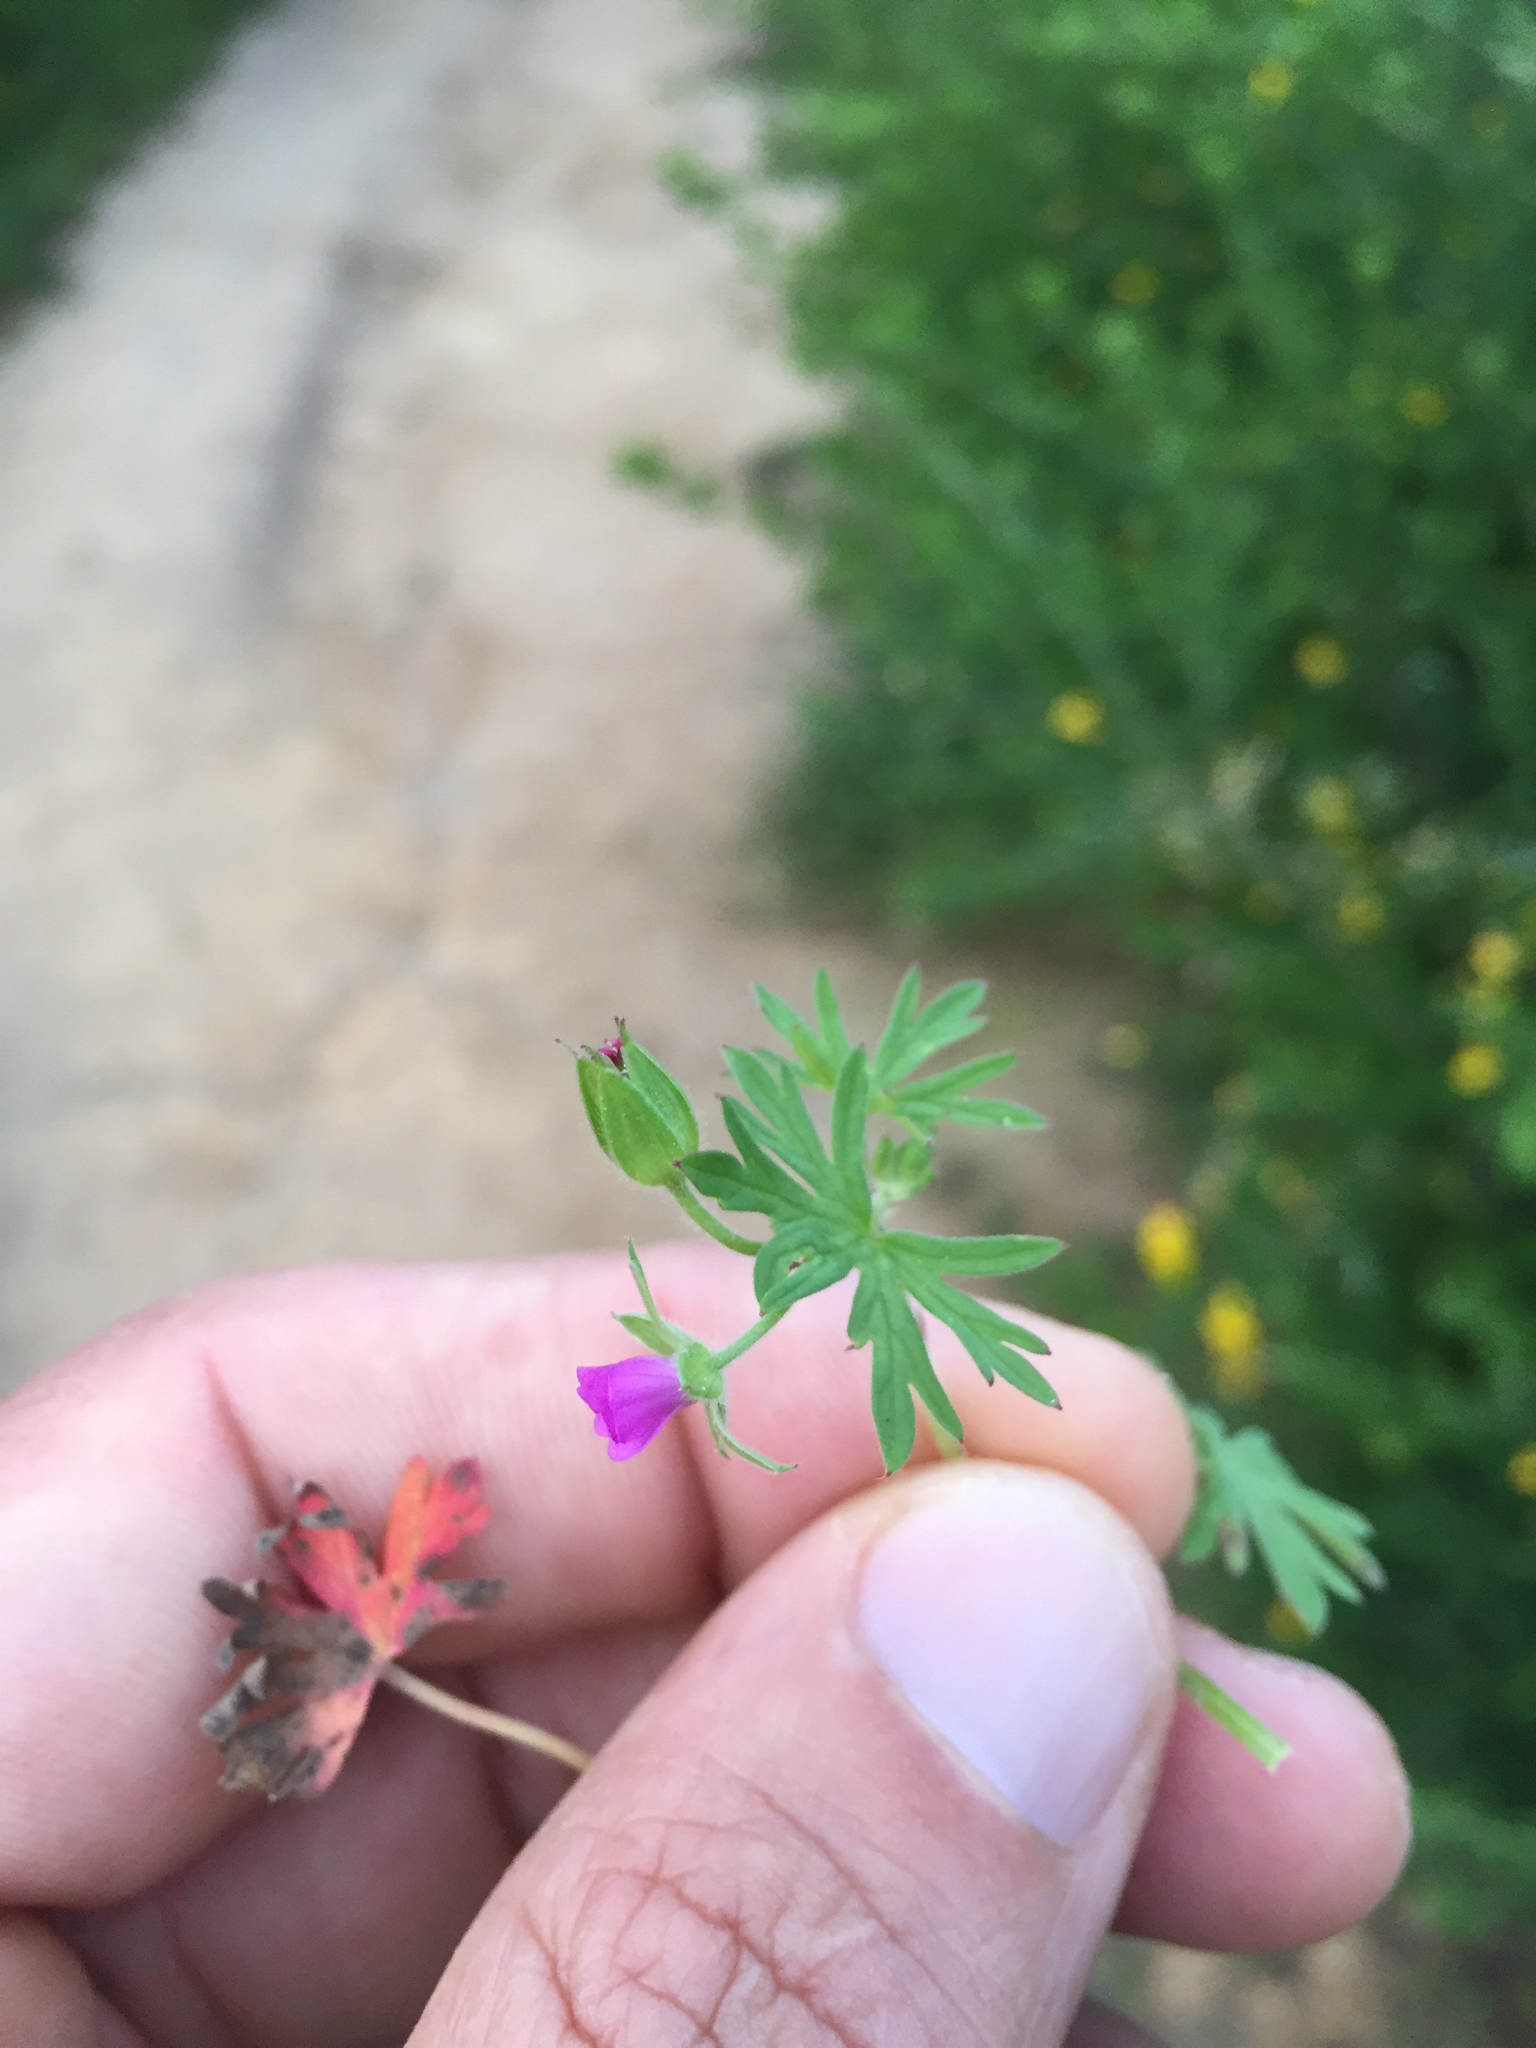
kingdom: Plantae
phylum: Tracheophyta
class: Magnoliopsida
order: Geraniales
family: Geraniaceae
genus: Geranium
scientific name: Geranium dissectum
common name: Cut-leaved crane's-bill
